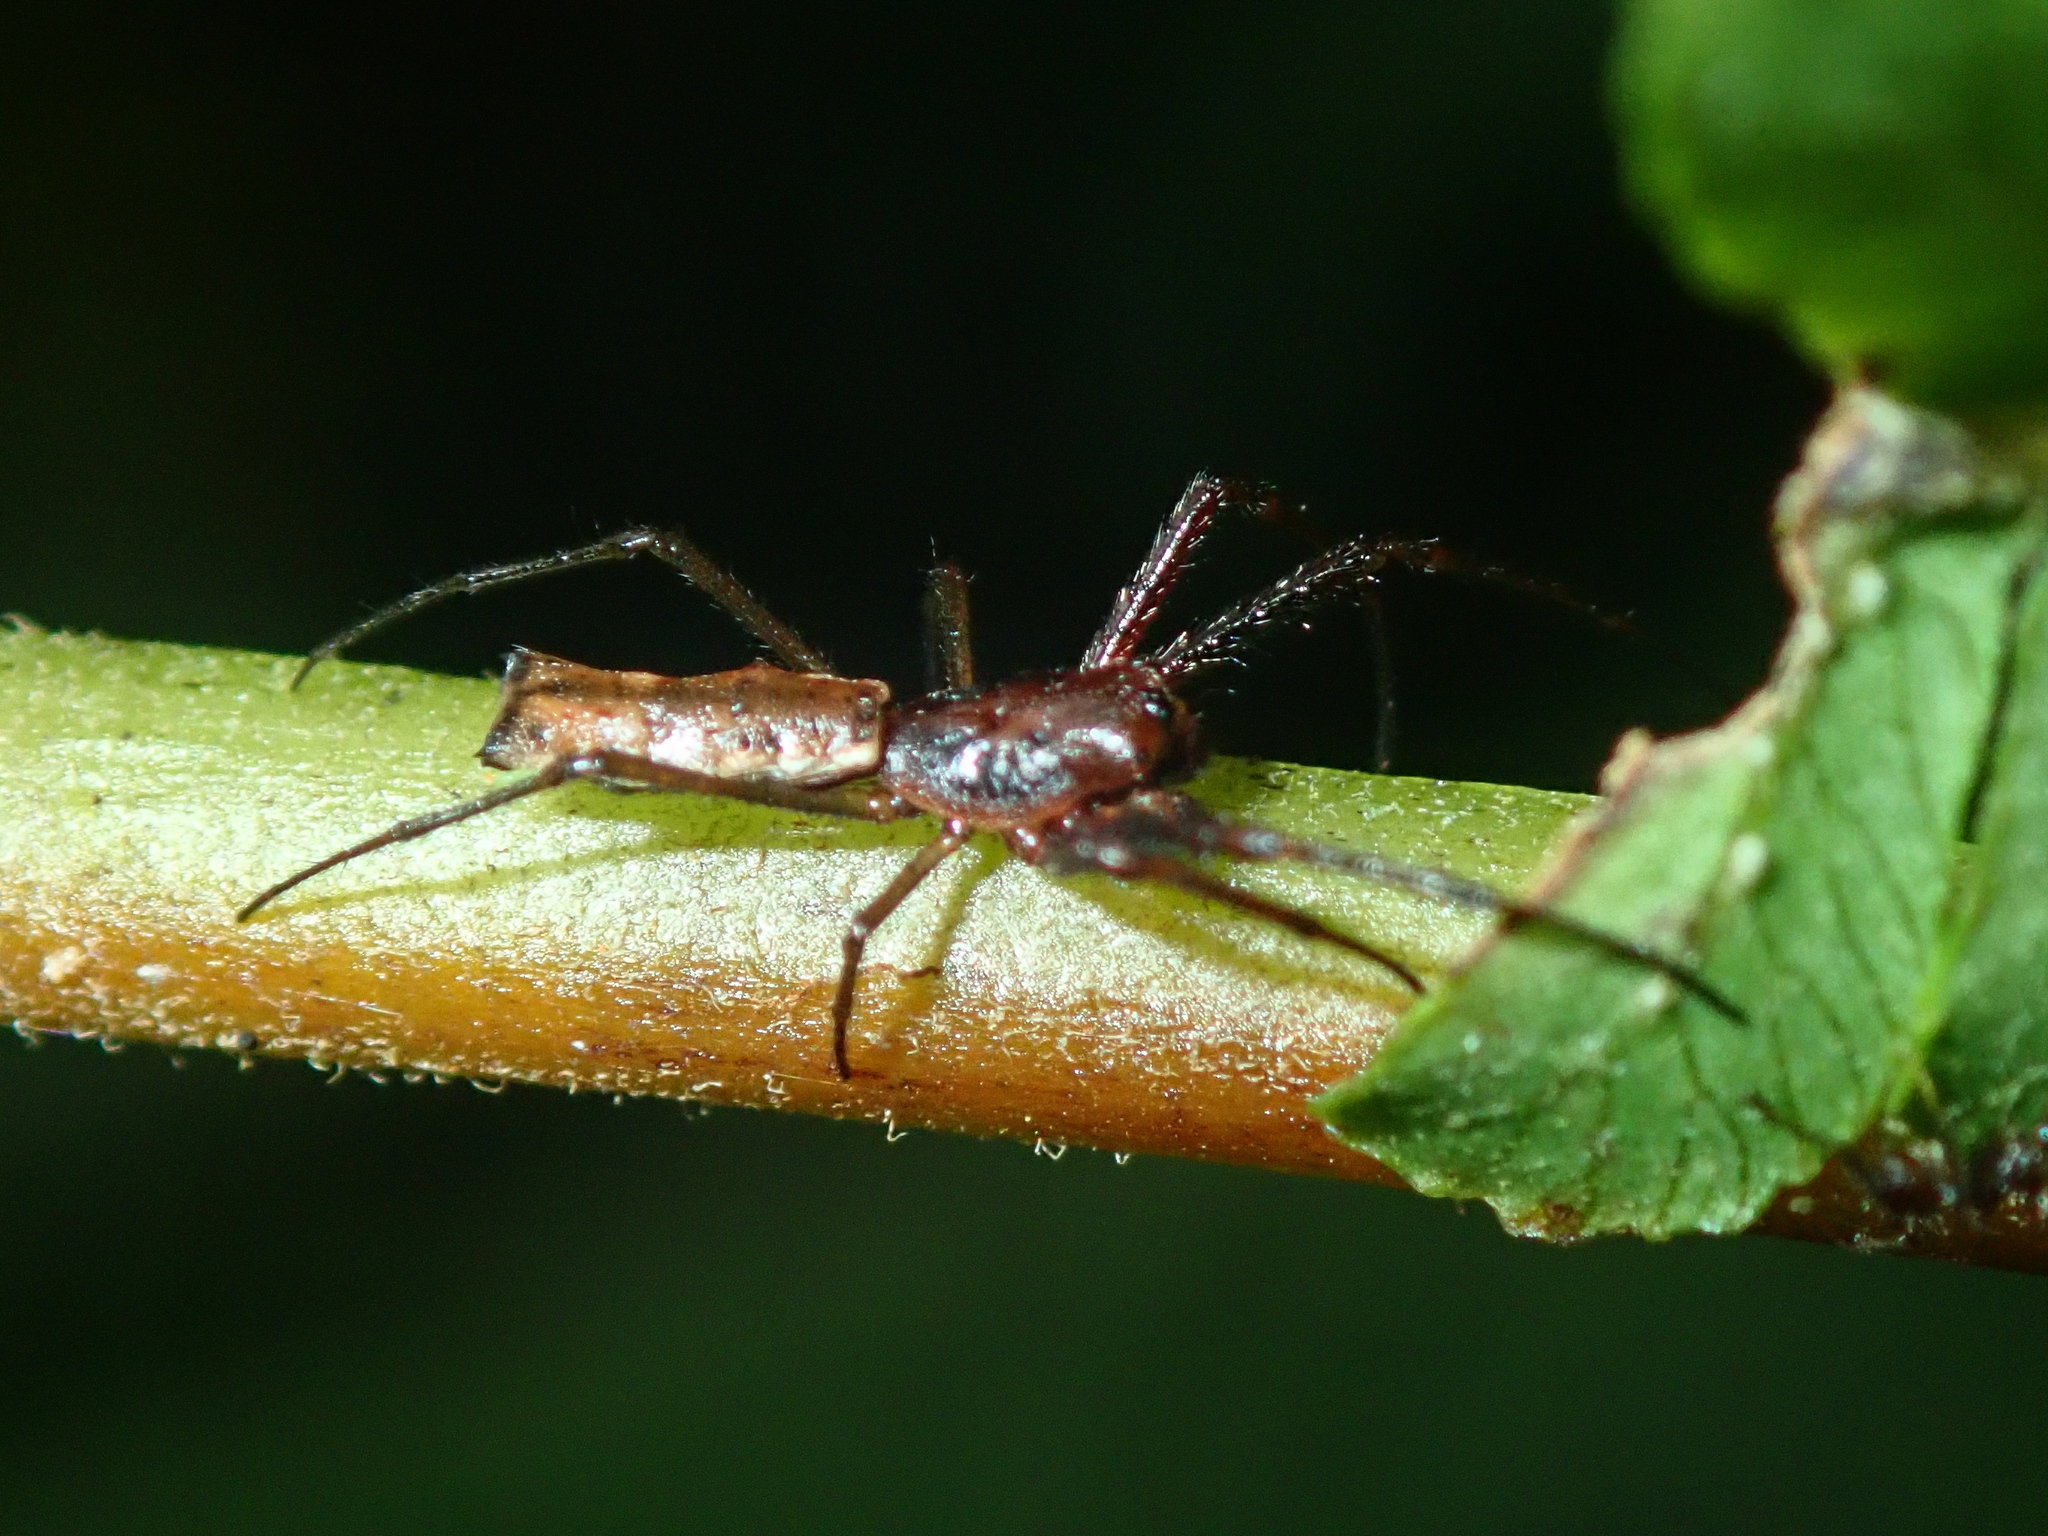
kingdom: Animalia
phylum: Arthropoda
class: Arachnida
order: Araneae
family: Araneidae
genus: Micrathena
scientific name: Micrathena nigrichelis
